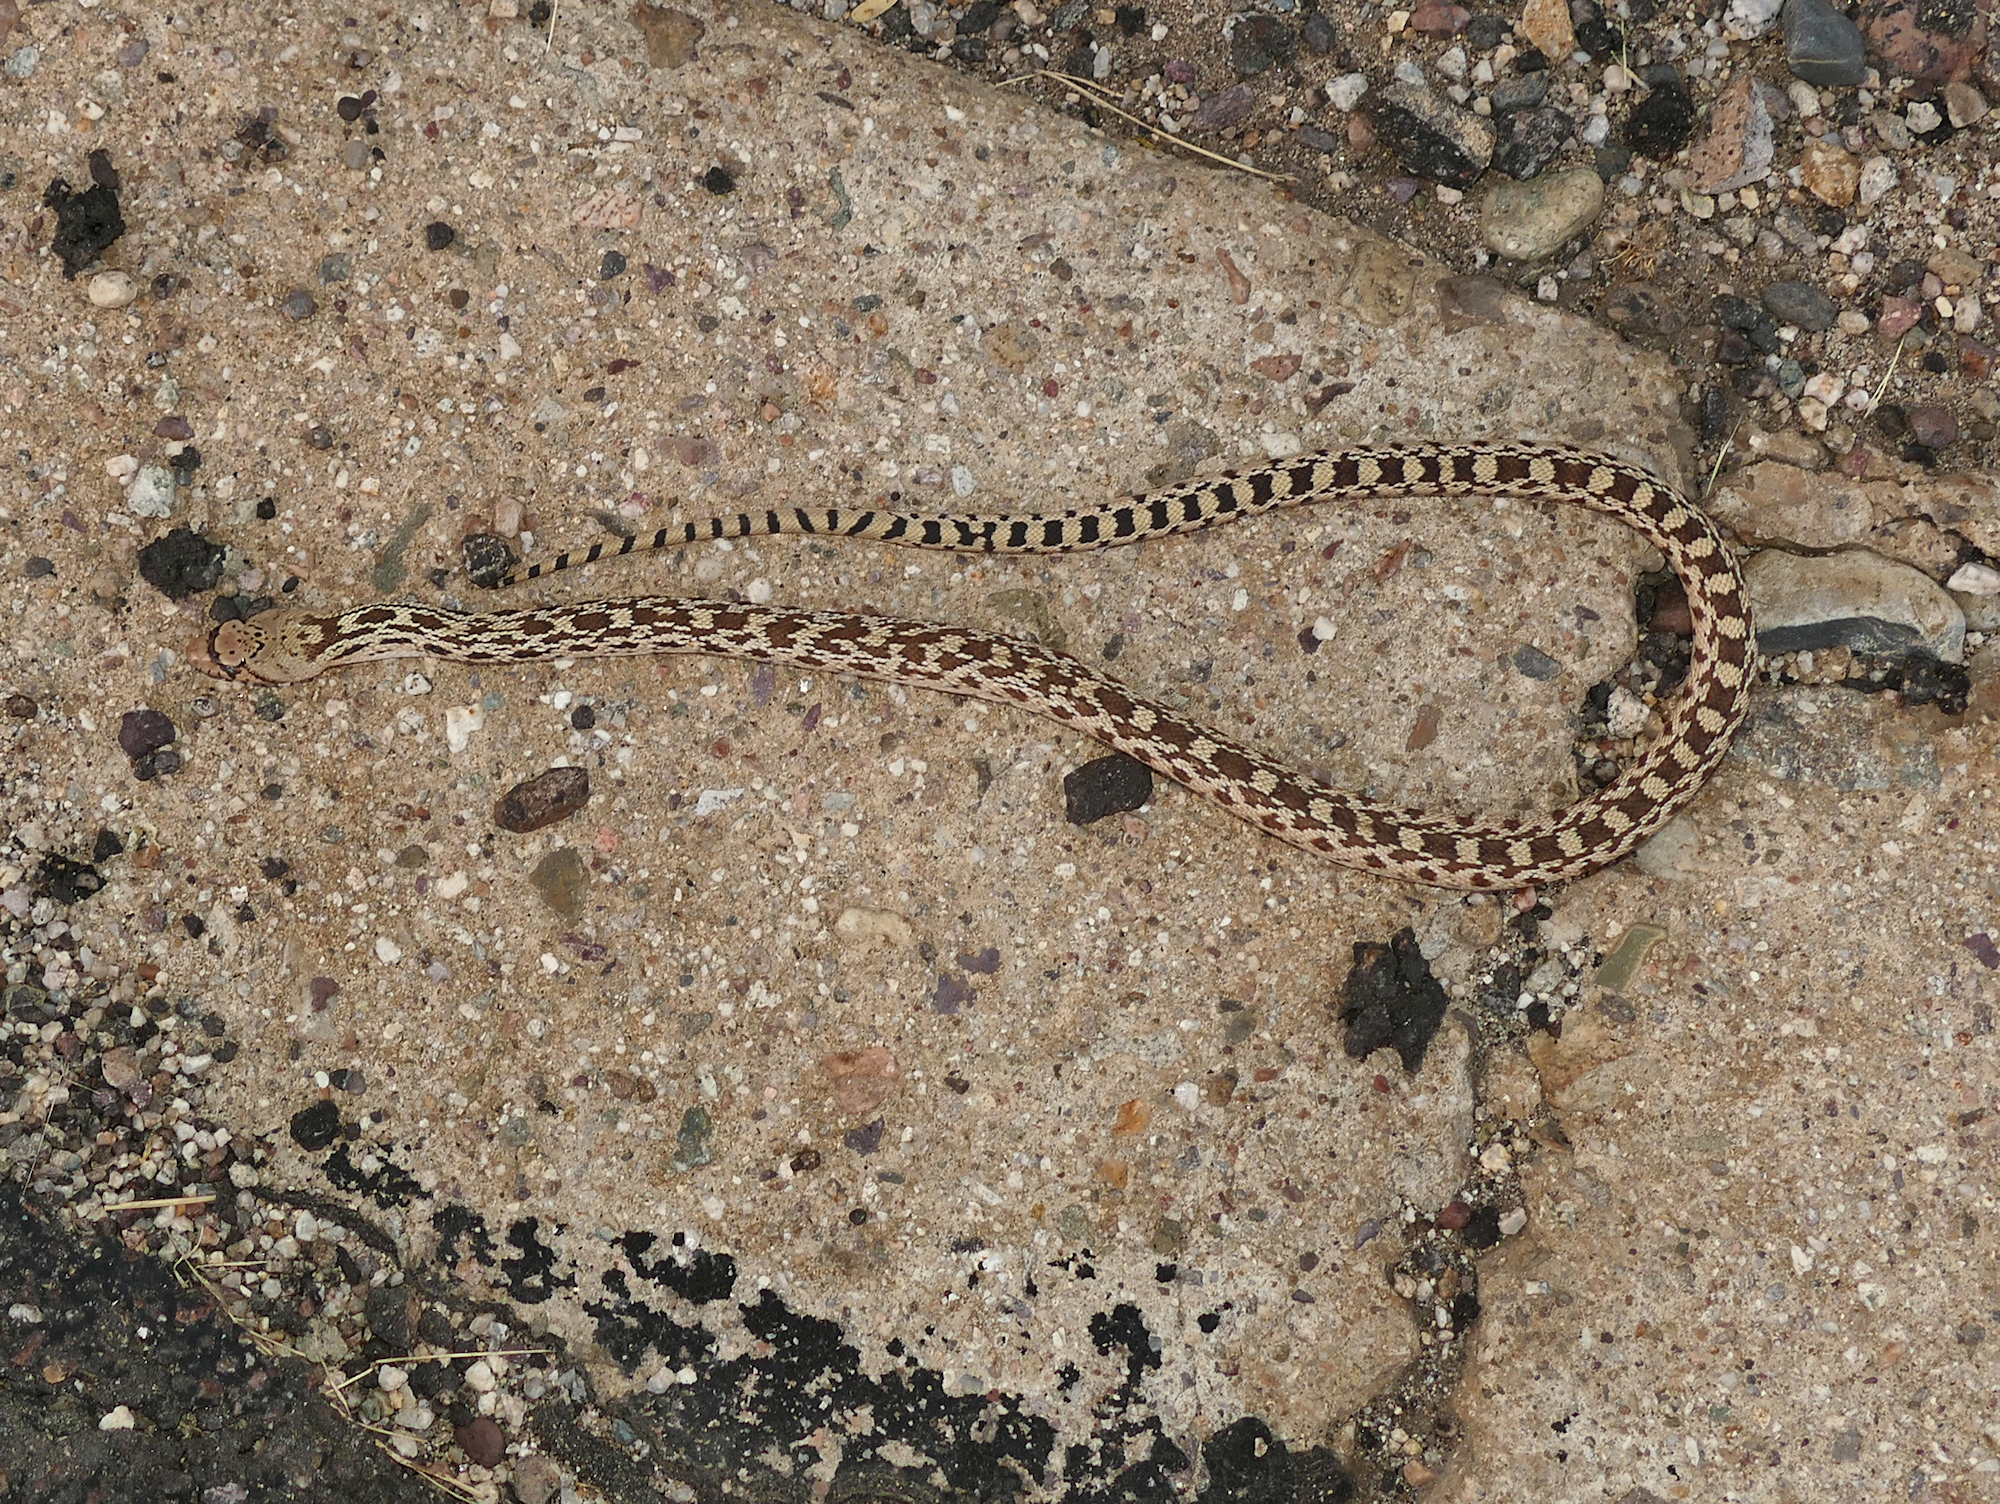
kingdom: Animalia
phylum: Chordata
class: Squamata
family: Colubridae
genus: Pituophis
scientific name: Pituophis catenifer
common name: Gopher snake
